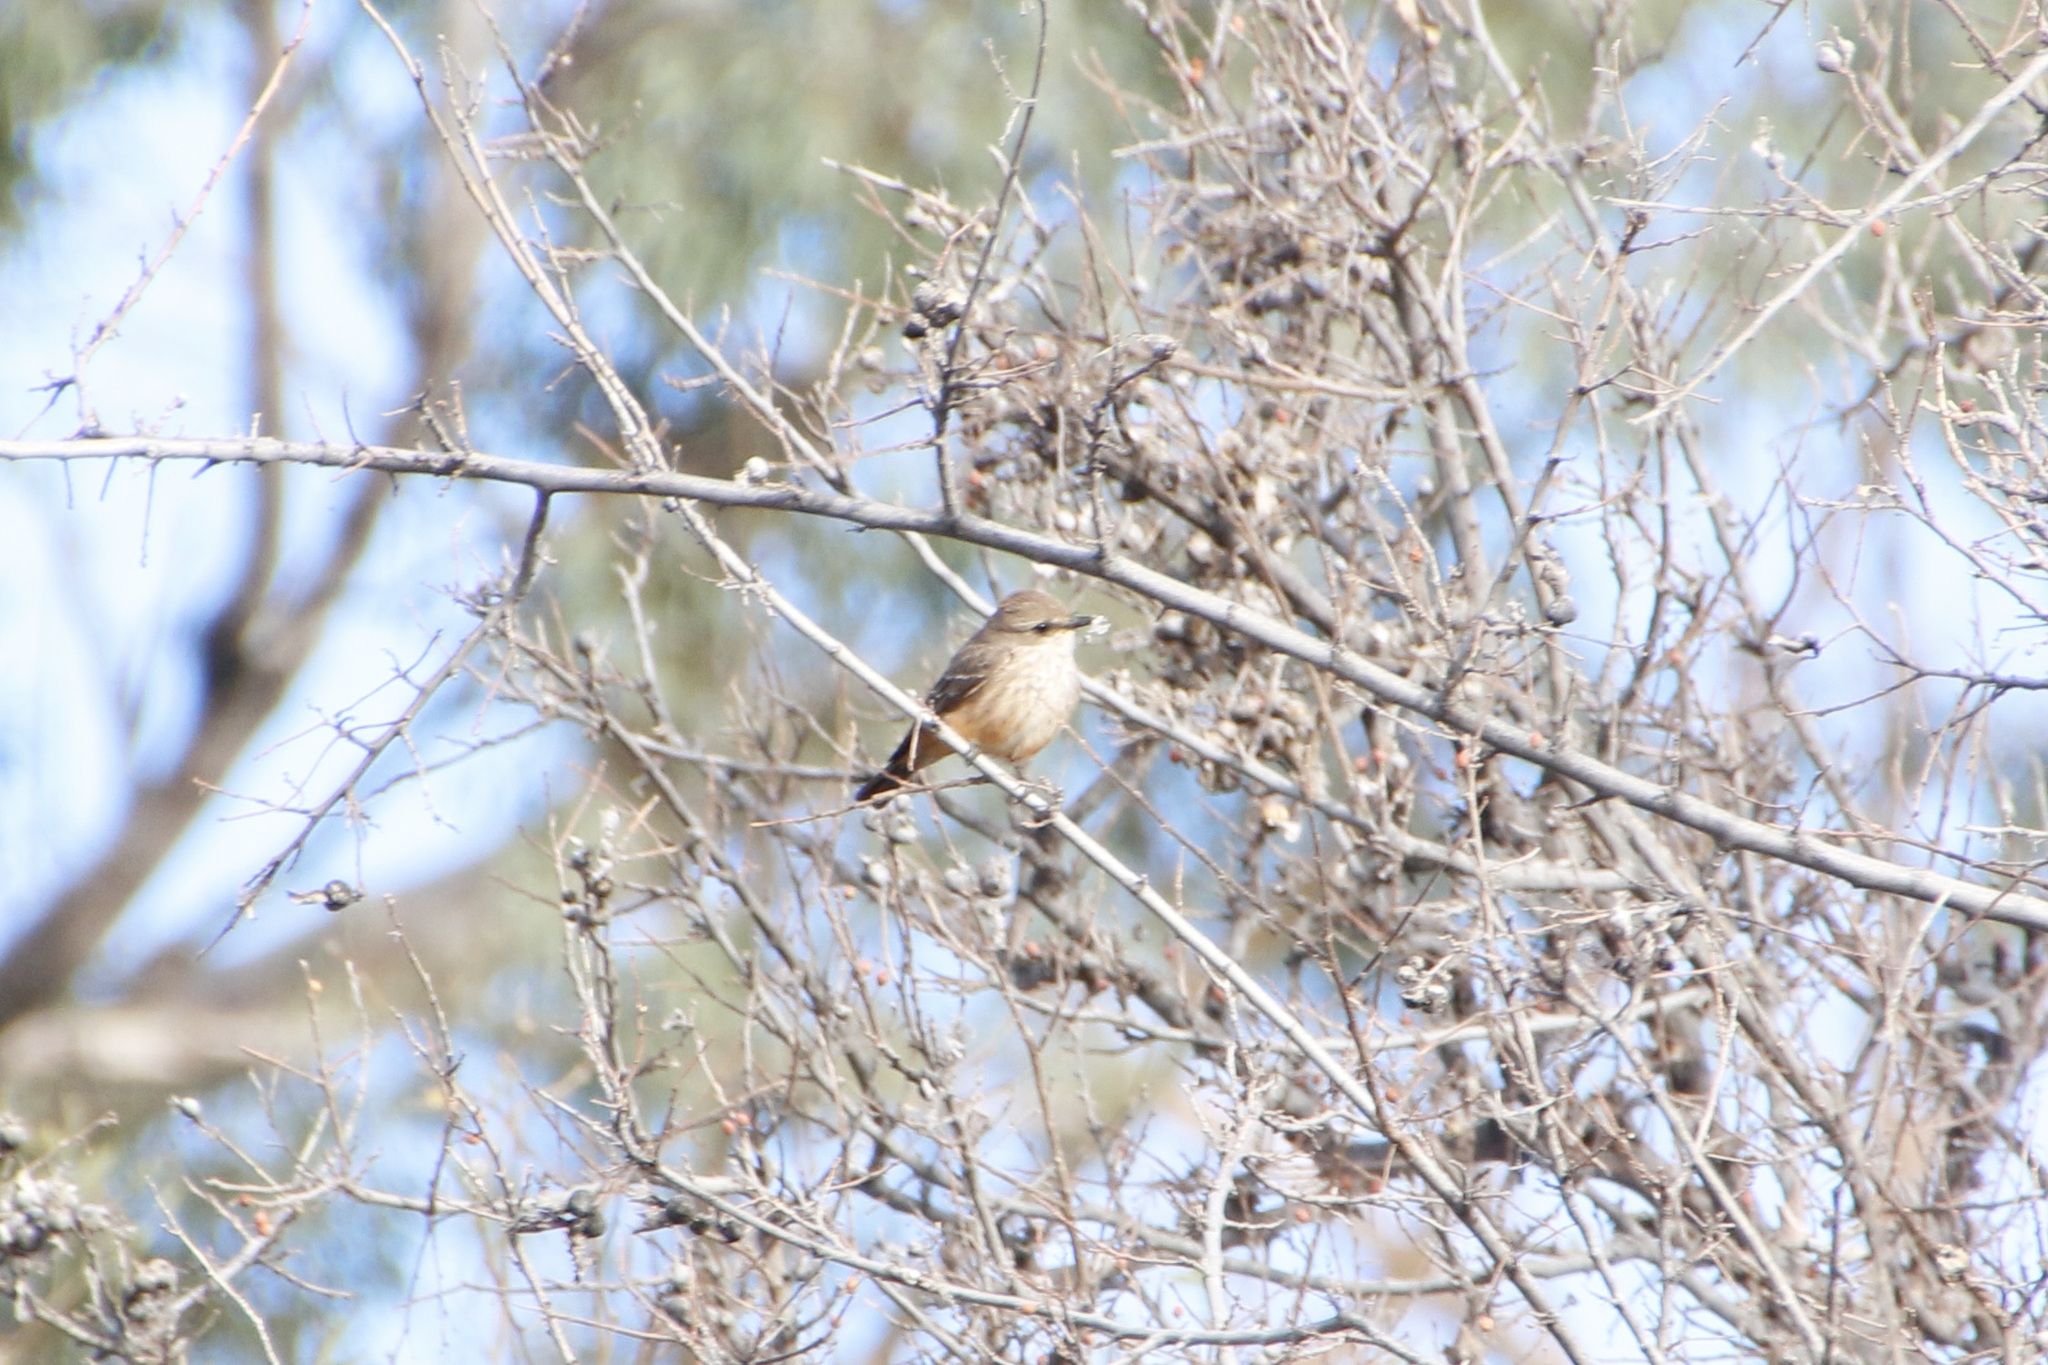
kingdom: Animalia
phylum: Chordata
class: Aves
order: Passeriformes
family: Tyrannidae
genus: Pyrocephalus
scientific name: Pyrocephalus rubinus
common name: Vermilion flycatcher
